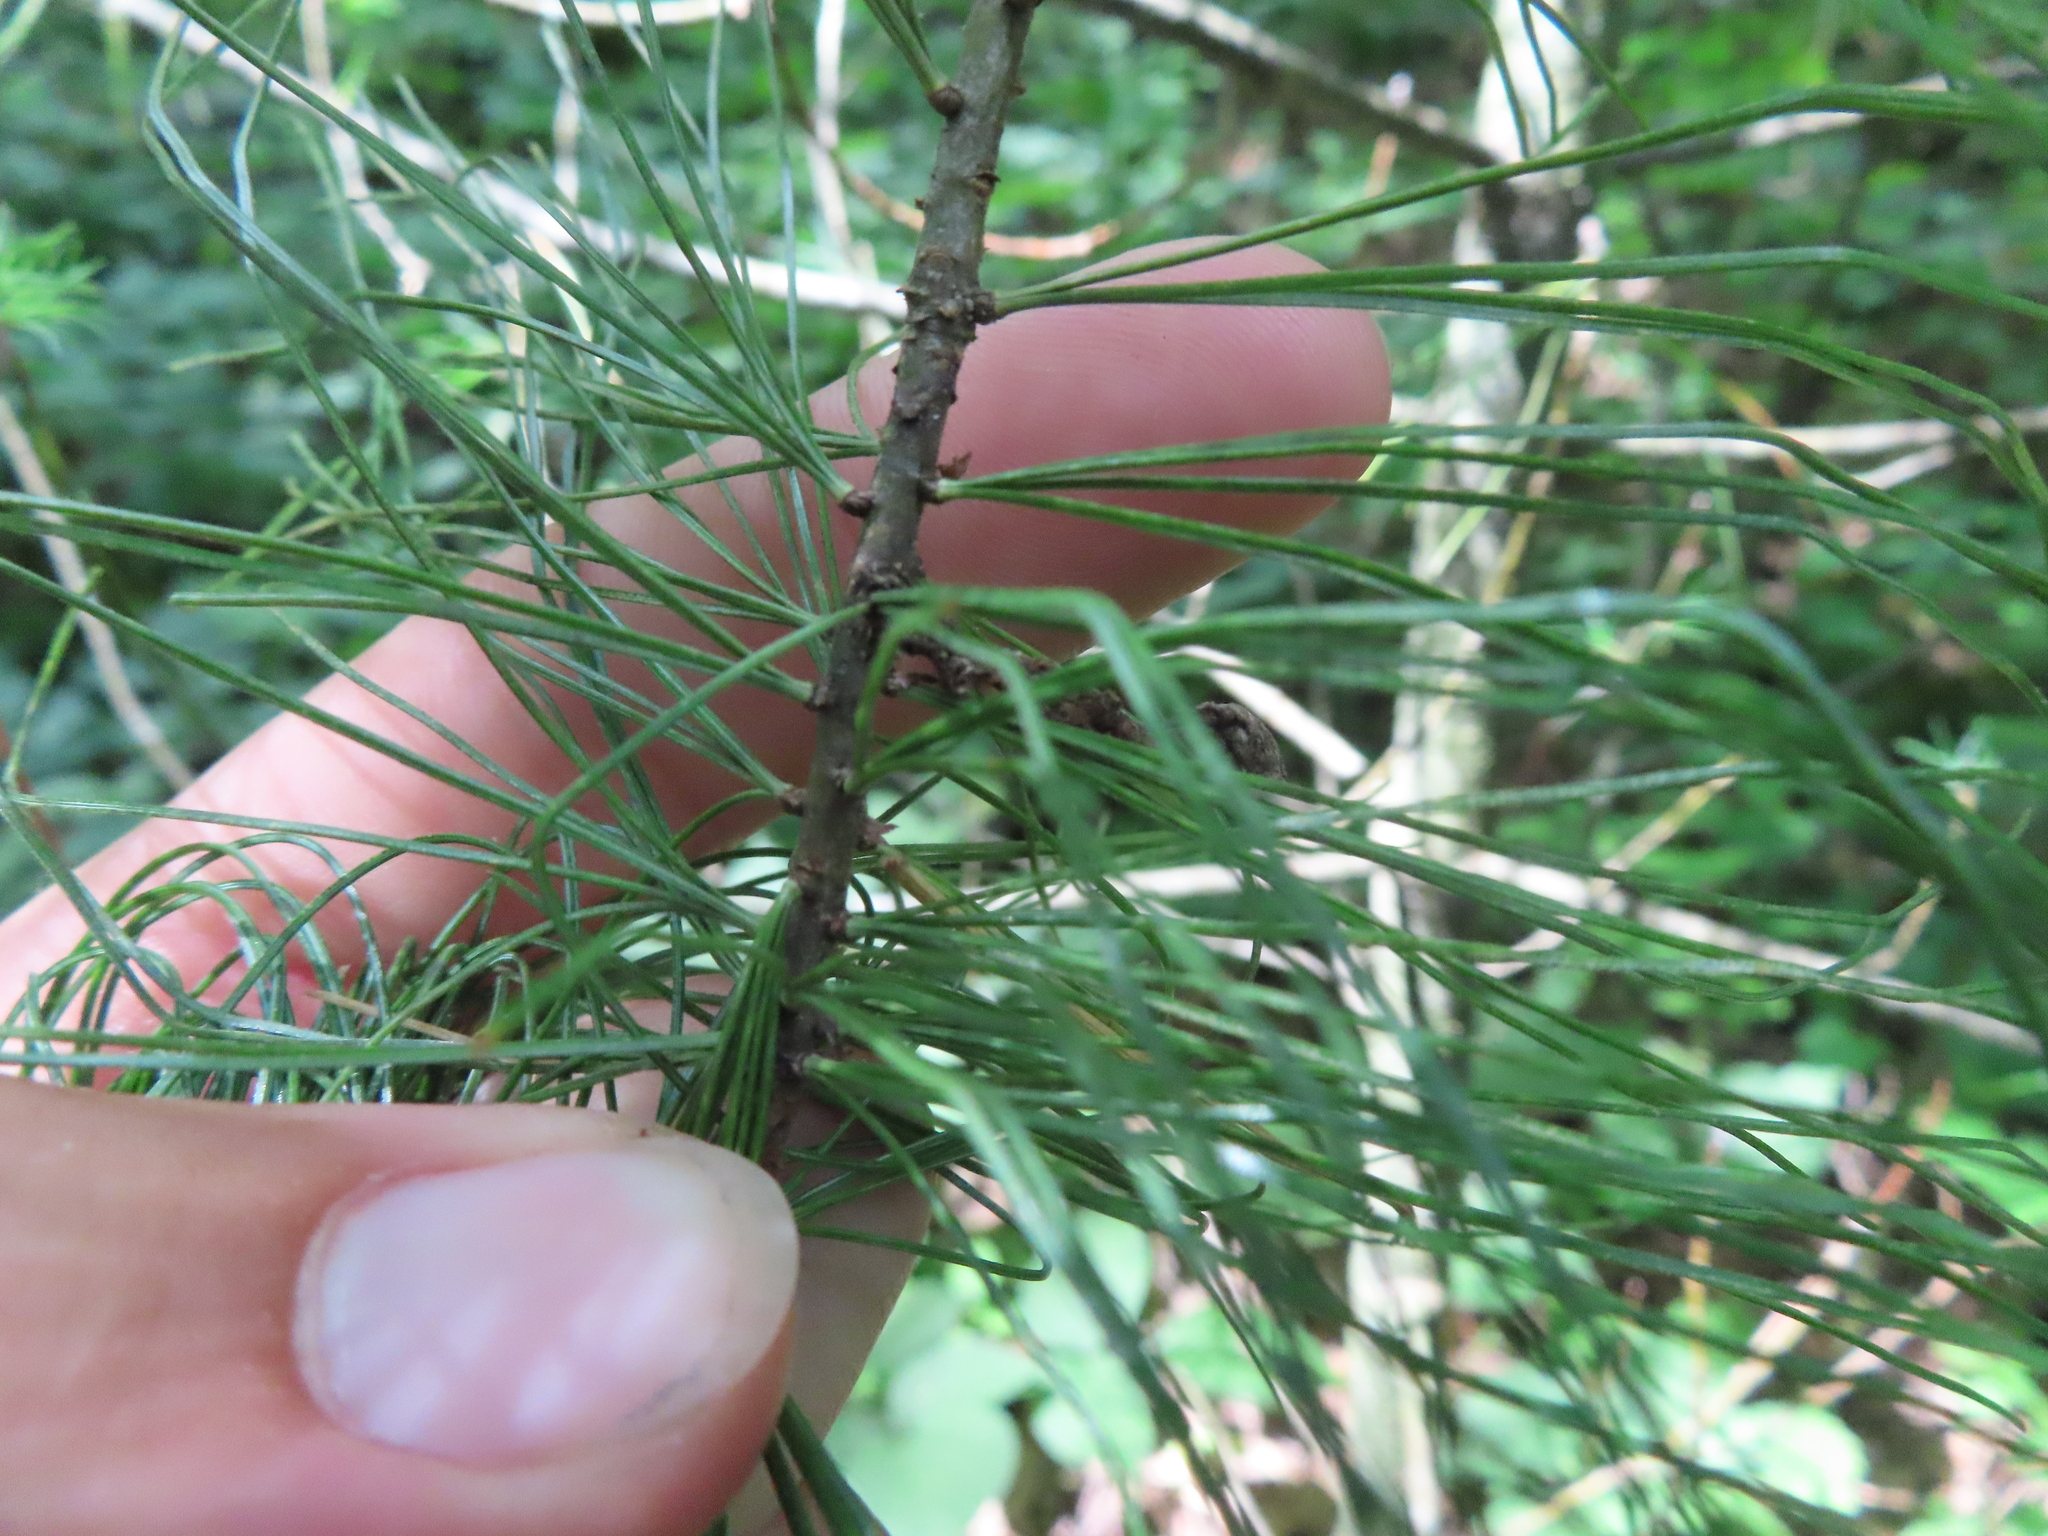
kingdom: Plantae
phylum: Tracheophyta
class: Pinopsida
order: Pinales
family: Pinaceae
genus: Pinus
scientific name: Pinus strobus
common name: Weymouth pine
